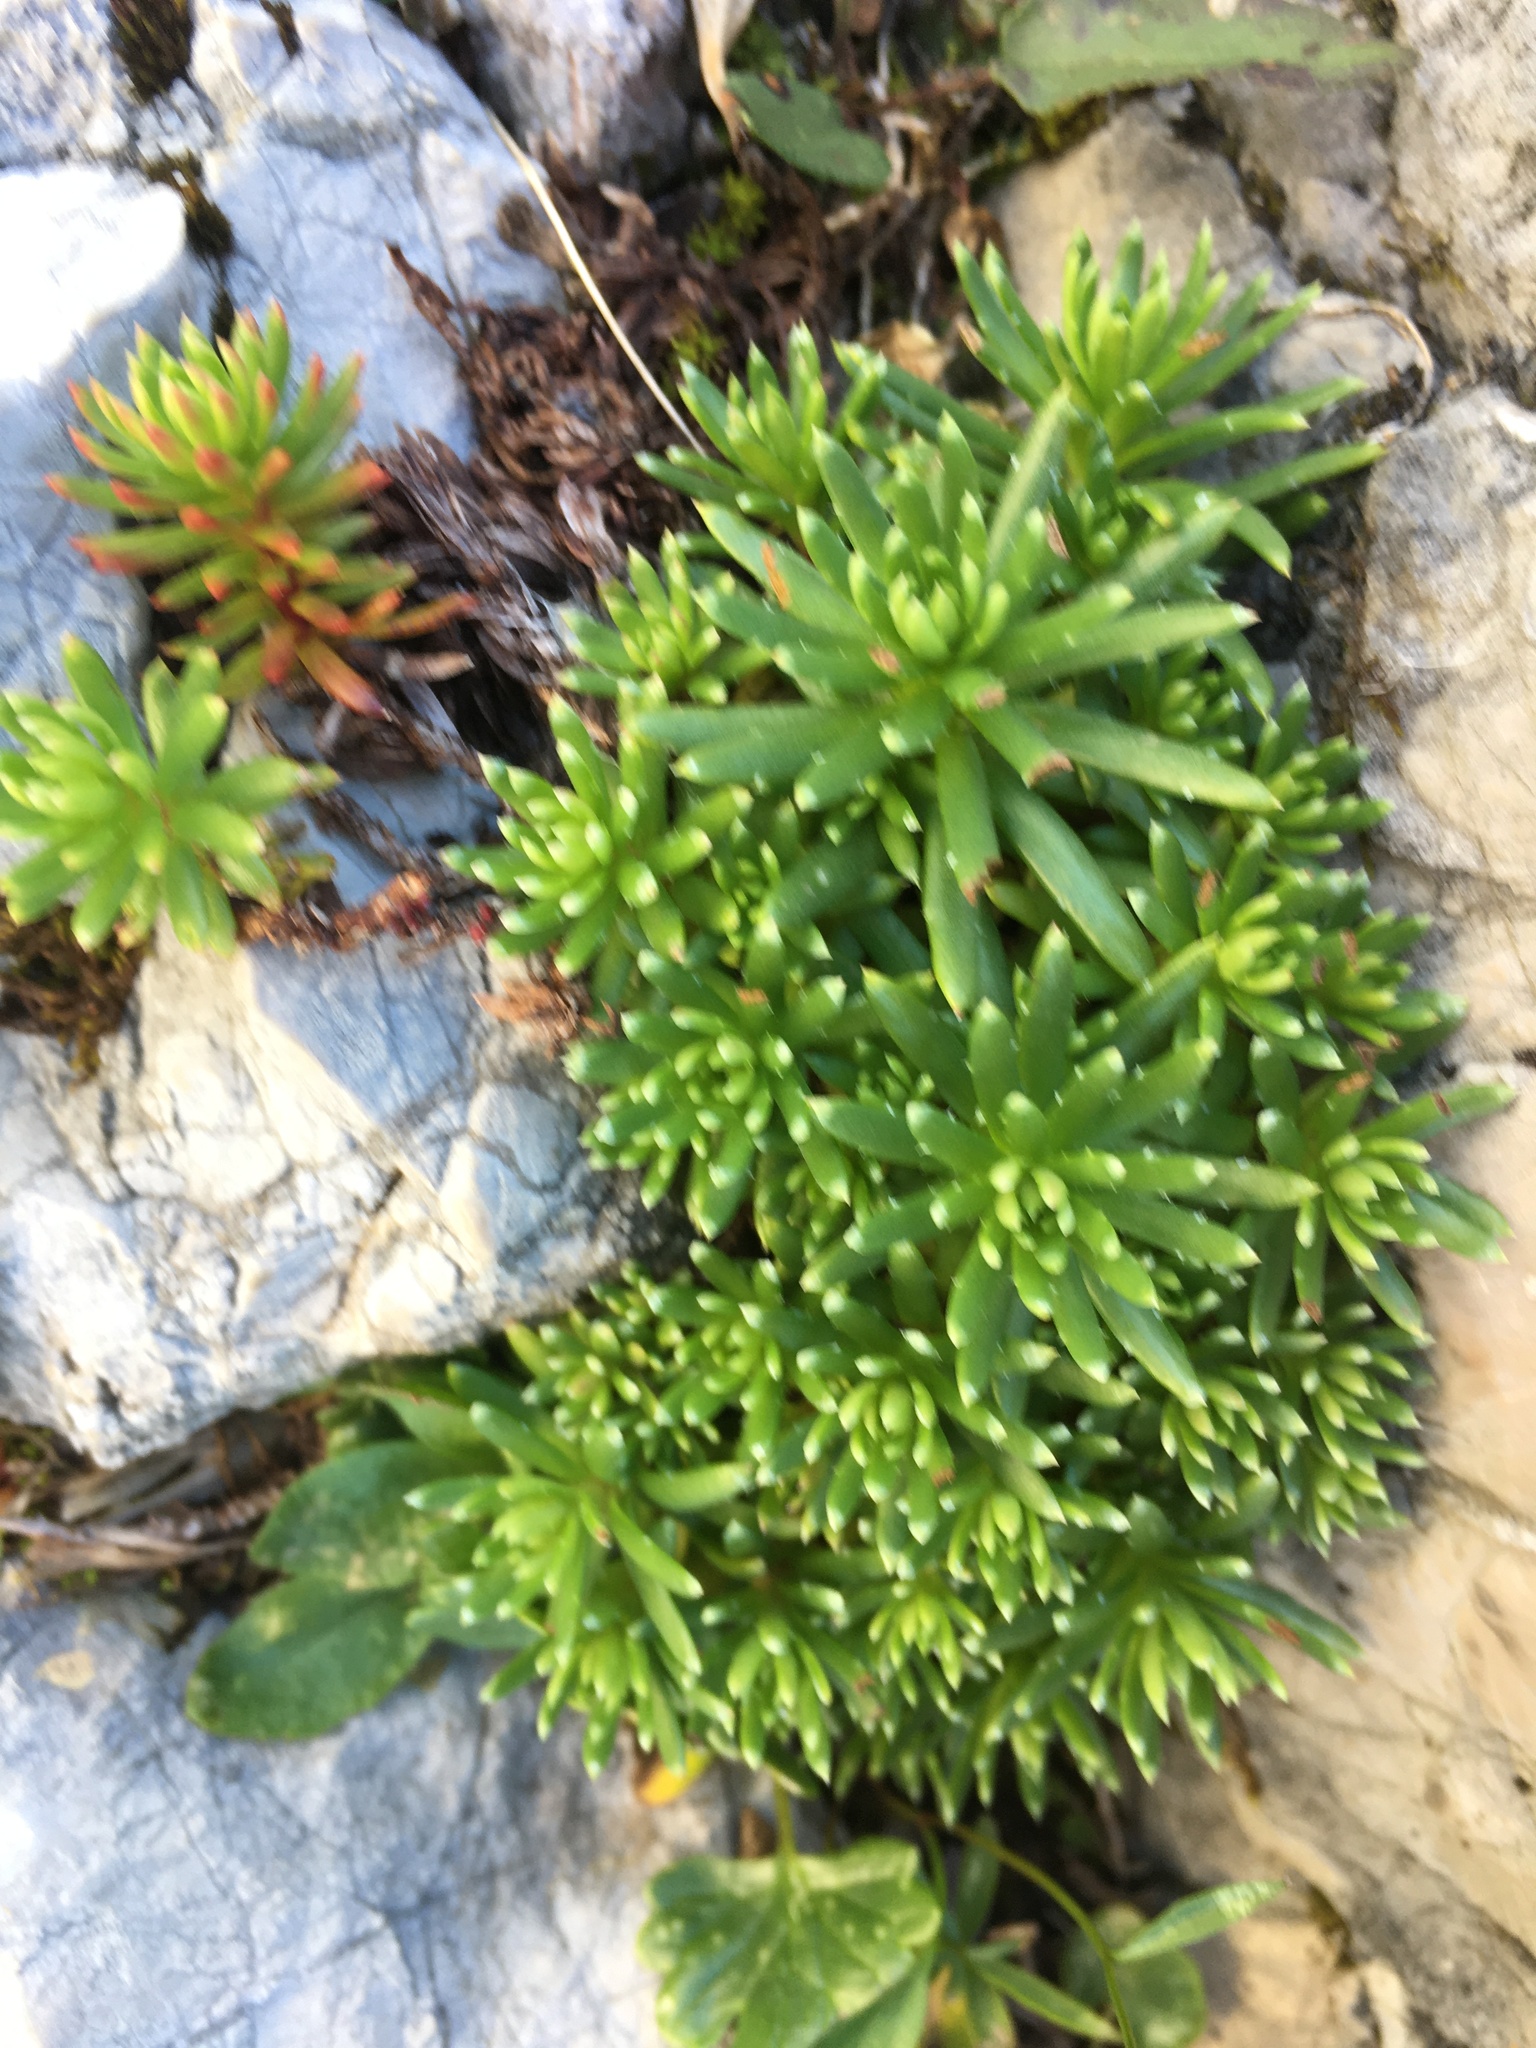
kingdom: Plantae
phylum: Tracheophyta
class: Magnoliopsida
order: Saxifragales
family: Saxifragaceae
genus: Saxifraga
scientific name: Saxifraga aizoides
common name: Yellow mountain saxifrage
